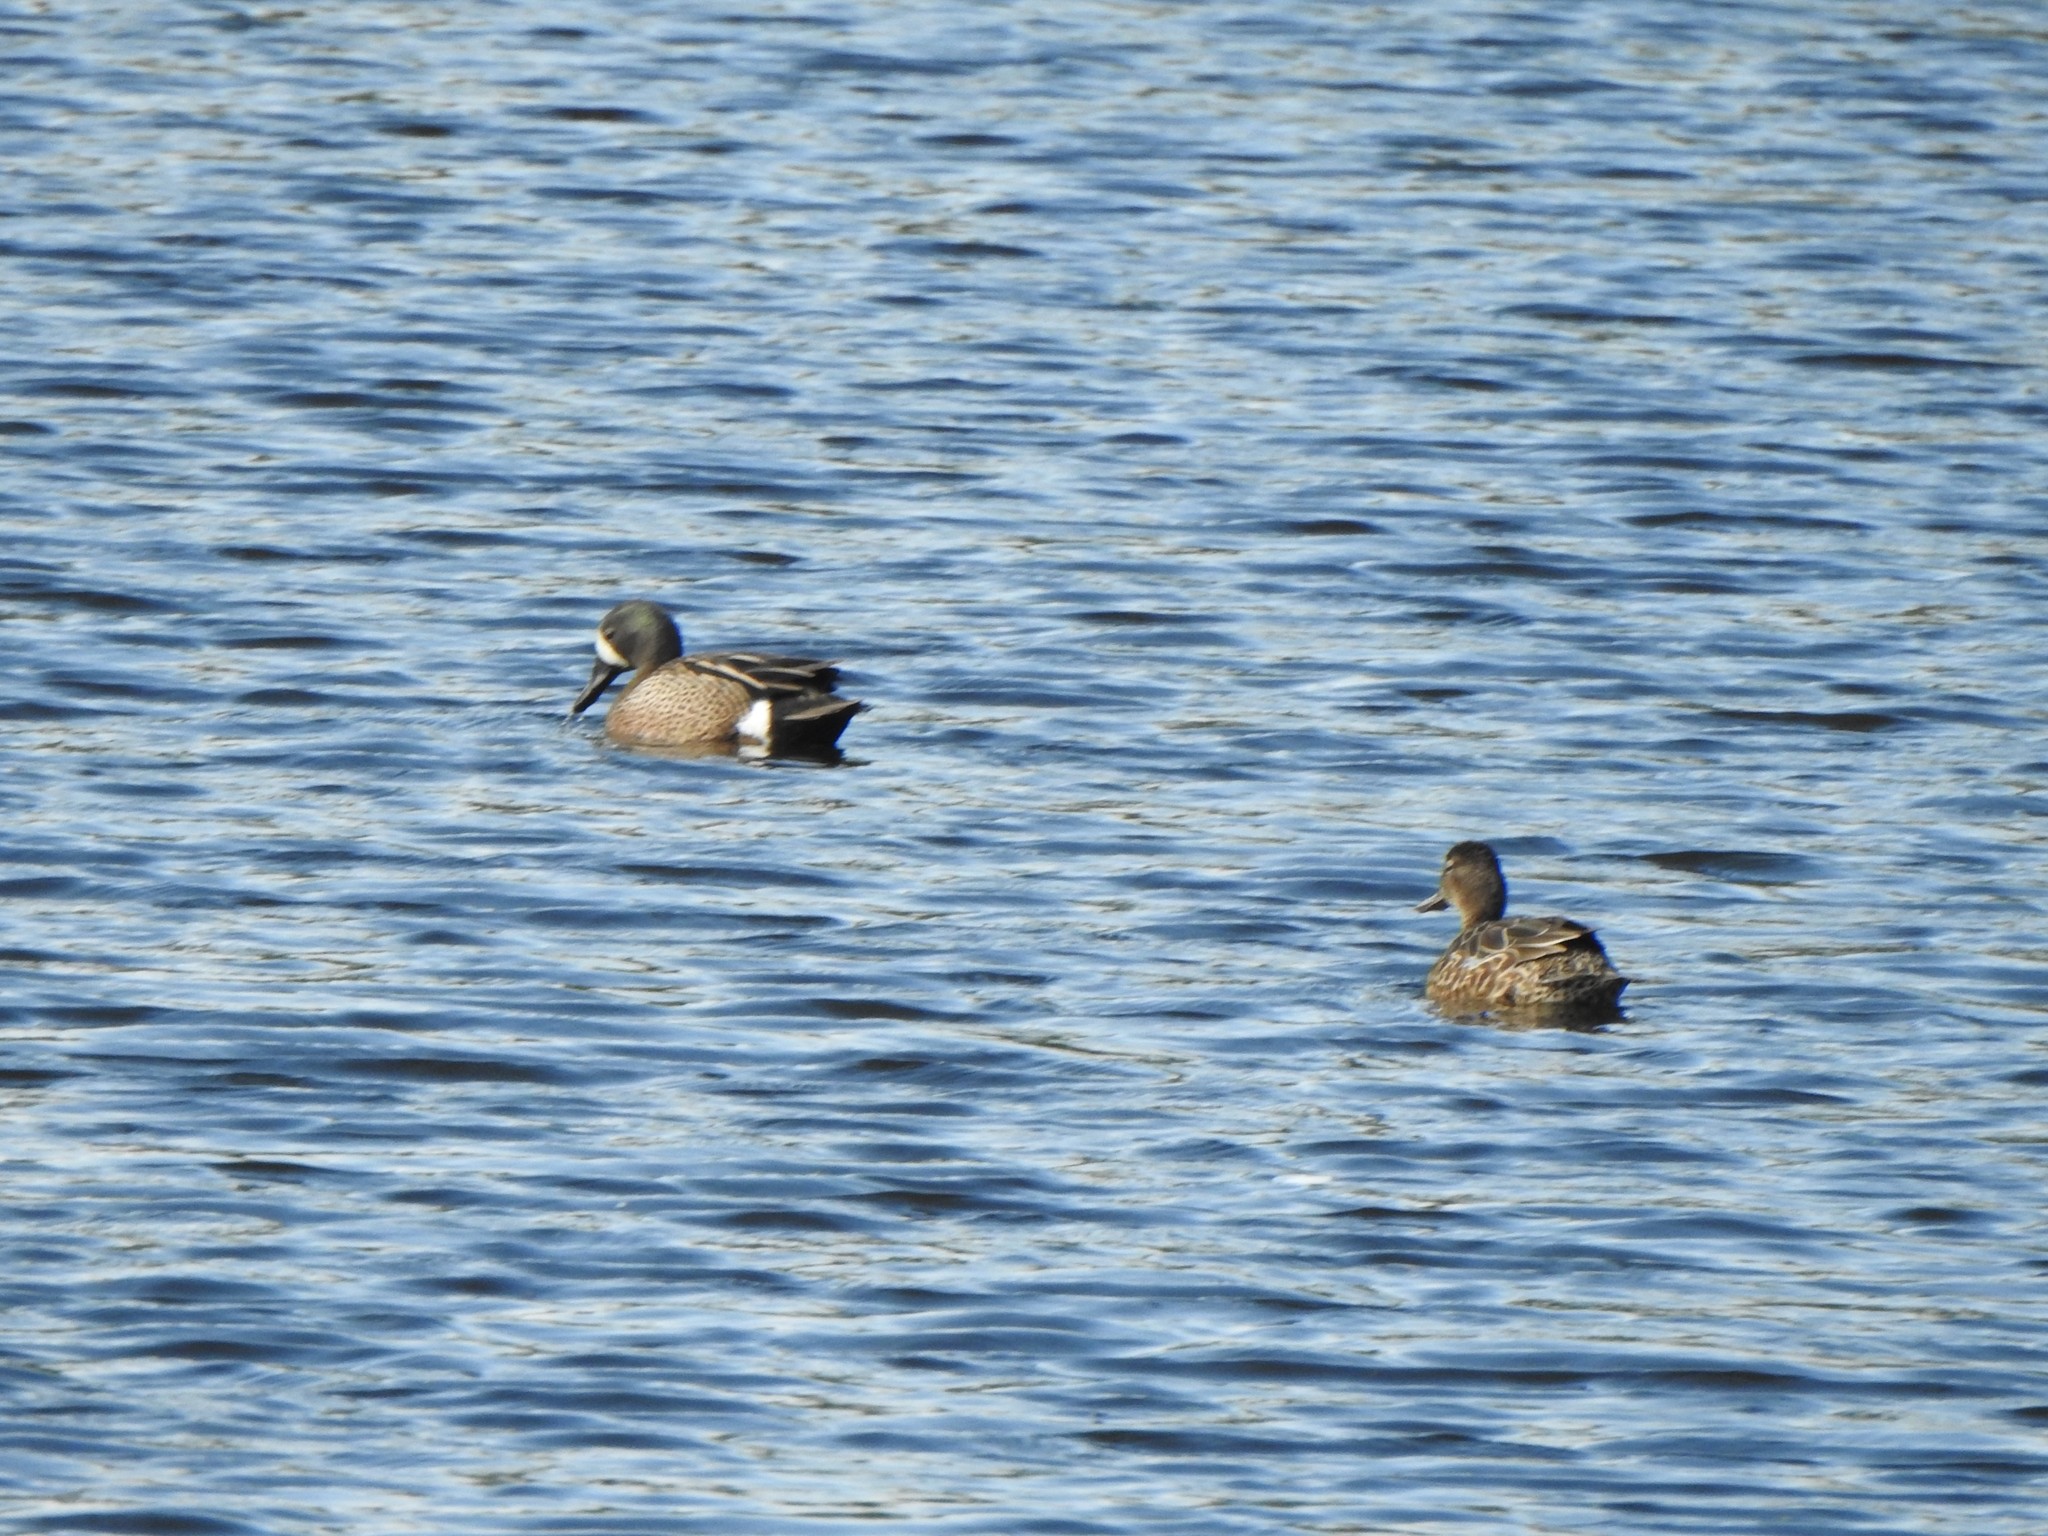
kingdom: Animalia
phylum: Chordata
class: Aves
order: Anseriformes
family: Anatidae
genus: Spatula
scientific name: Spatula discors
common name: Blue-winged teal
